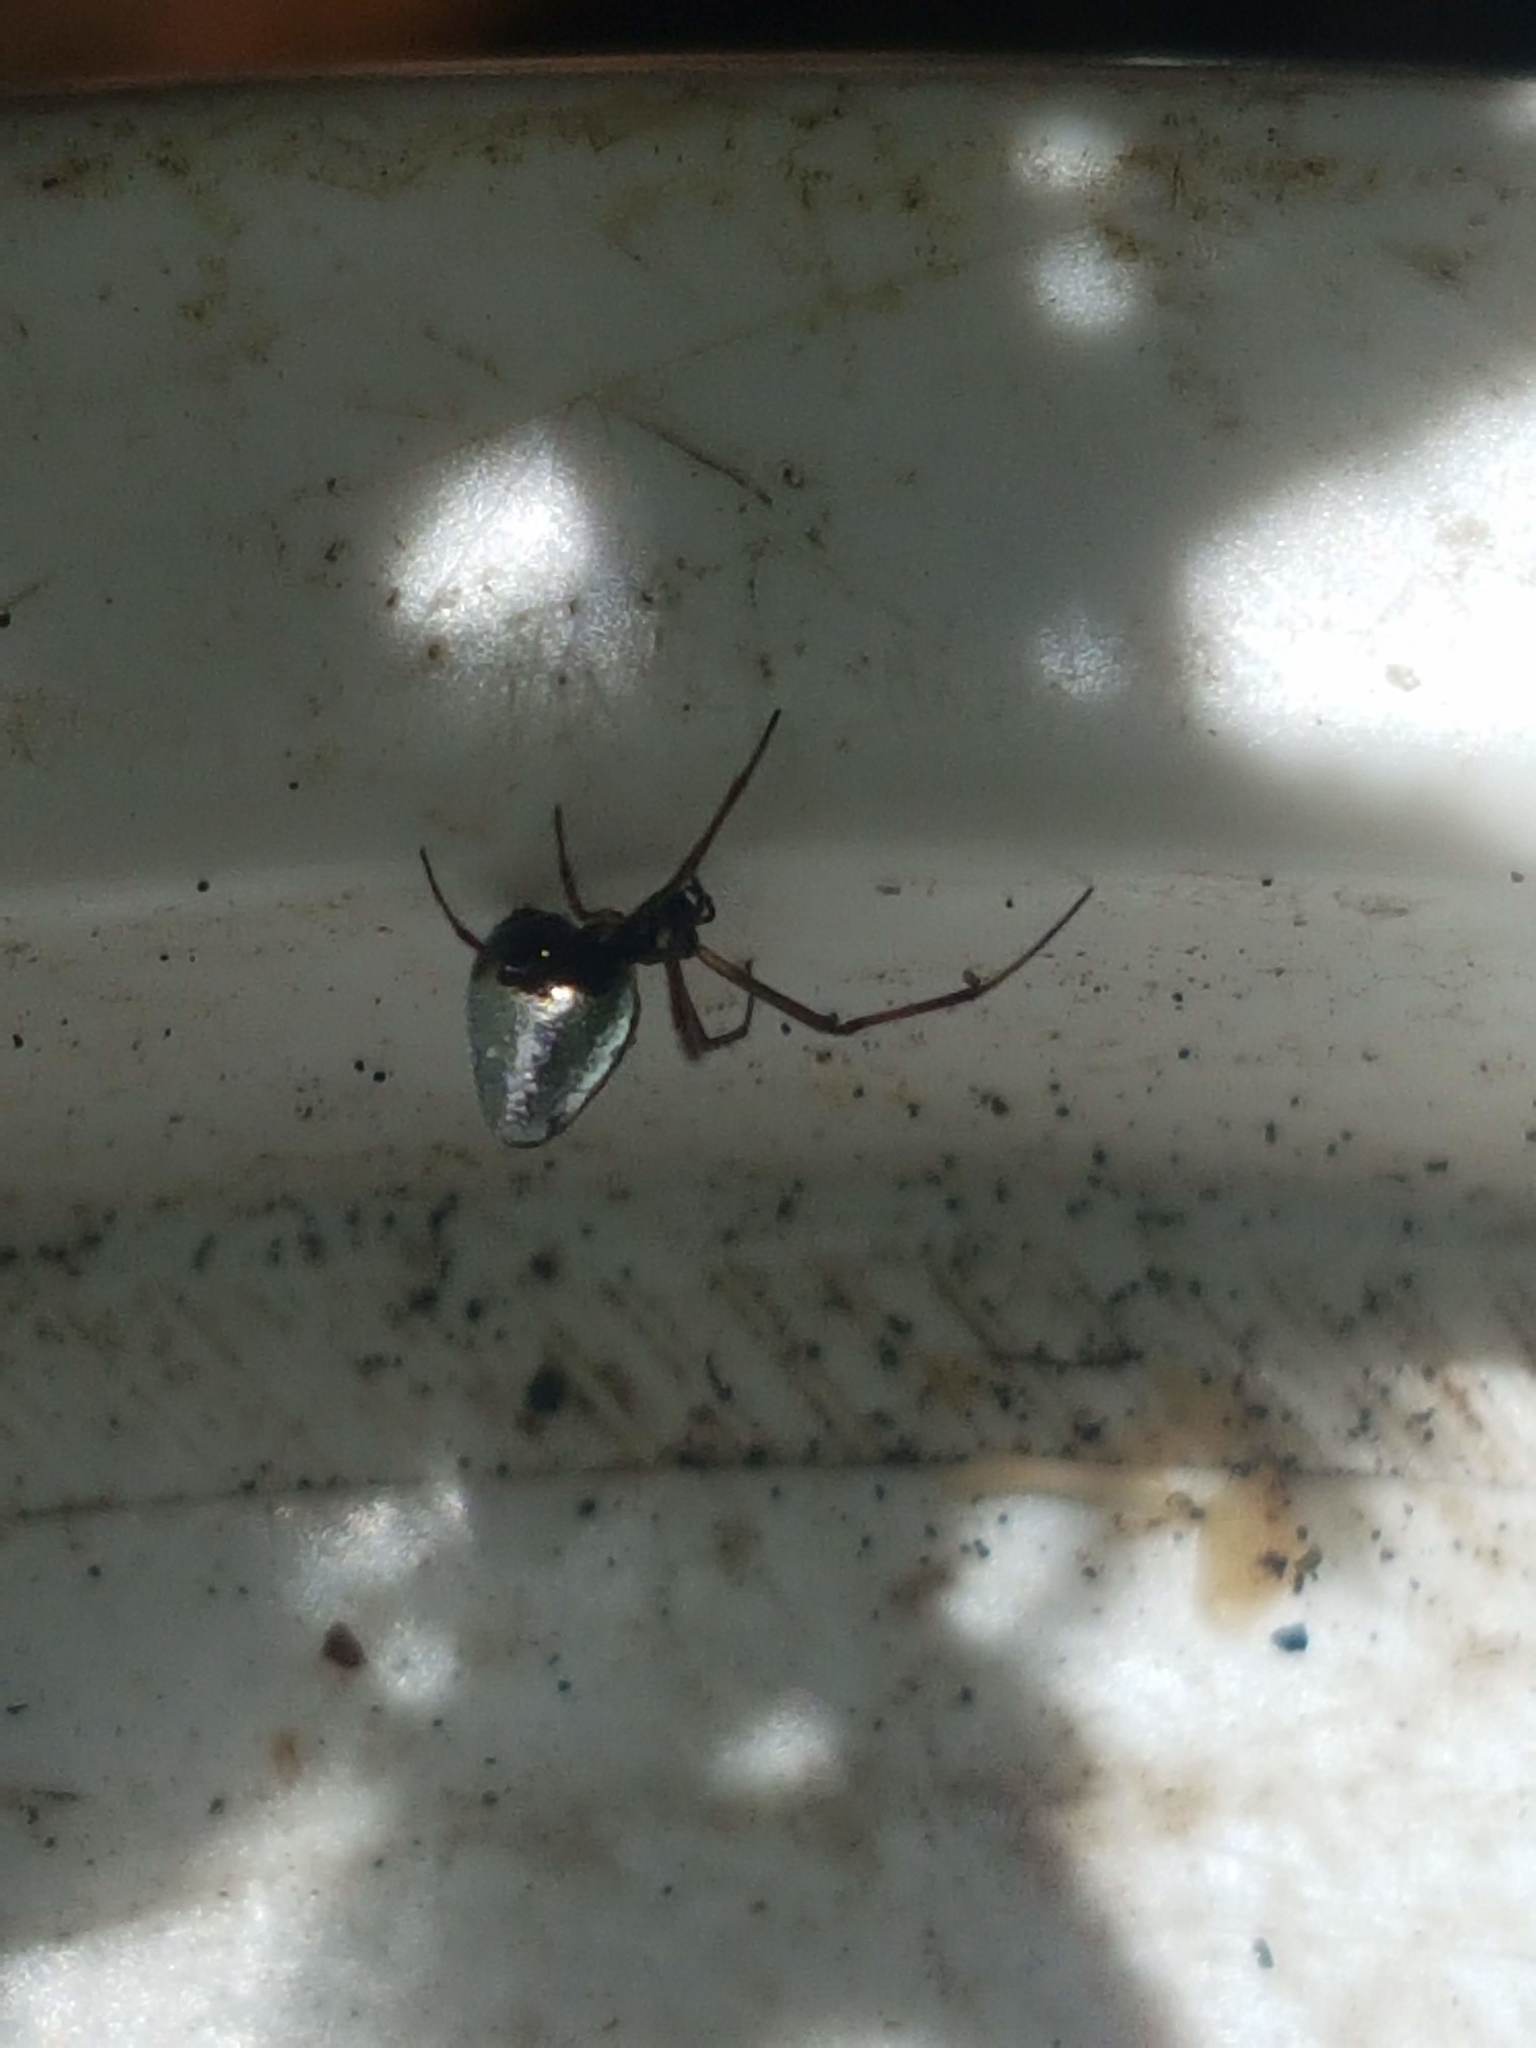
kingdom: Animalia
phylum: Arthropoda
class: Arachnida
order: Araneae
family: Theridiidae
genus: Argyrodes
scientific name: Argyrodes antipodianus
